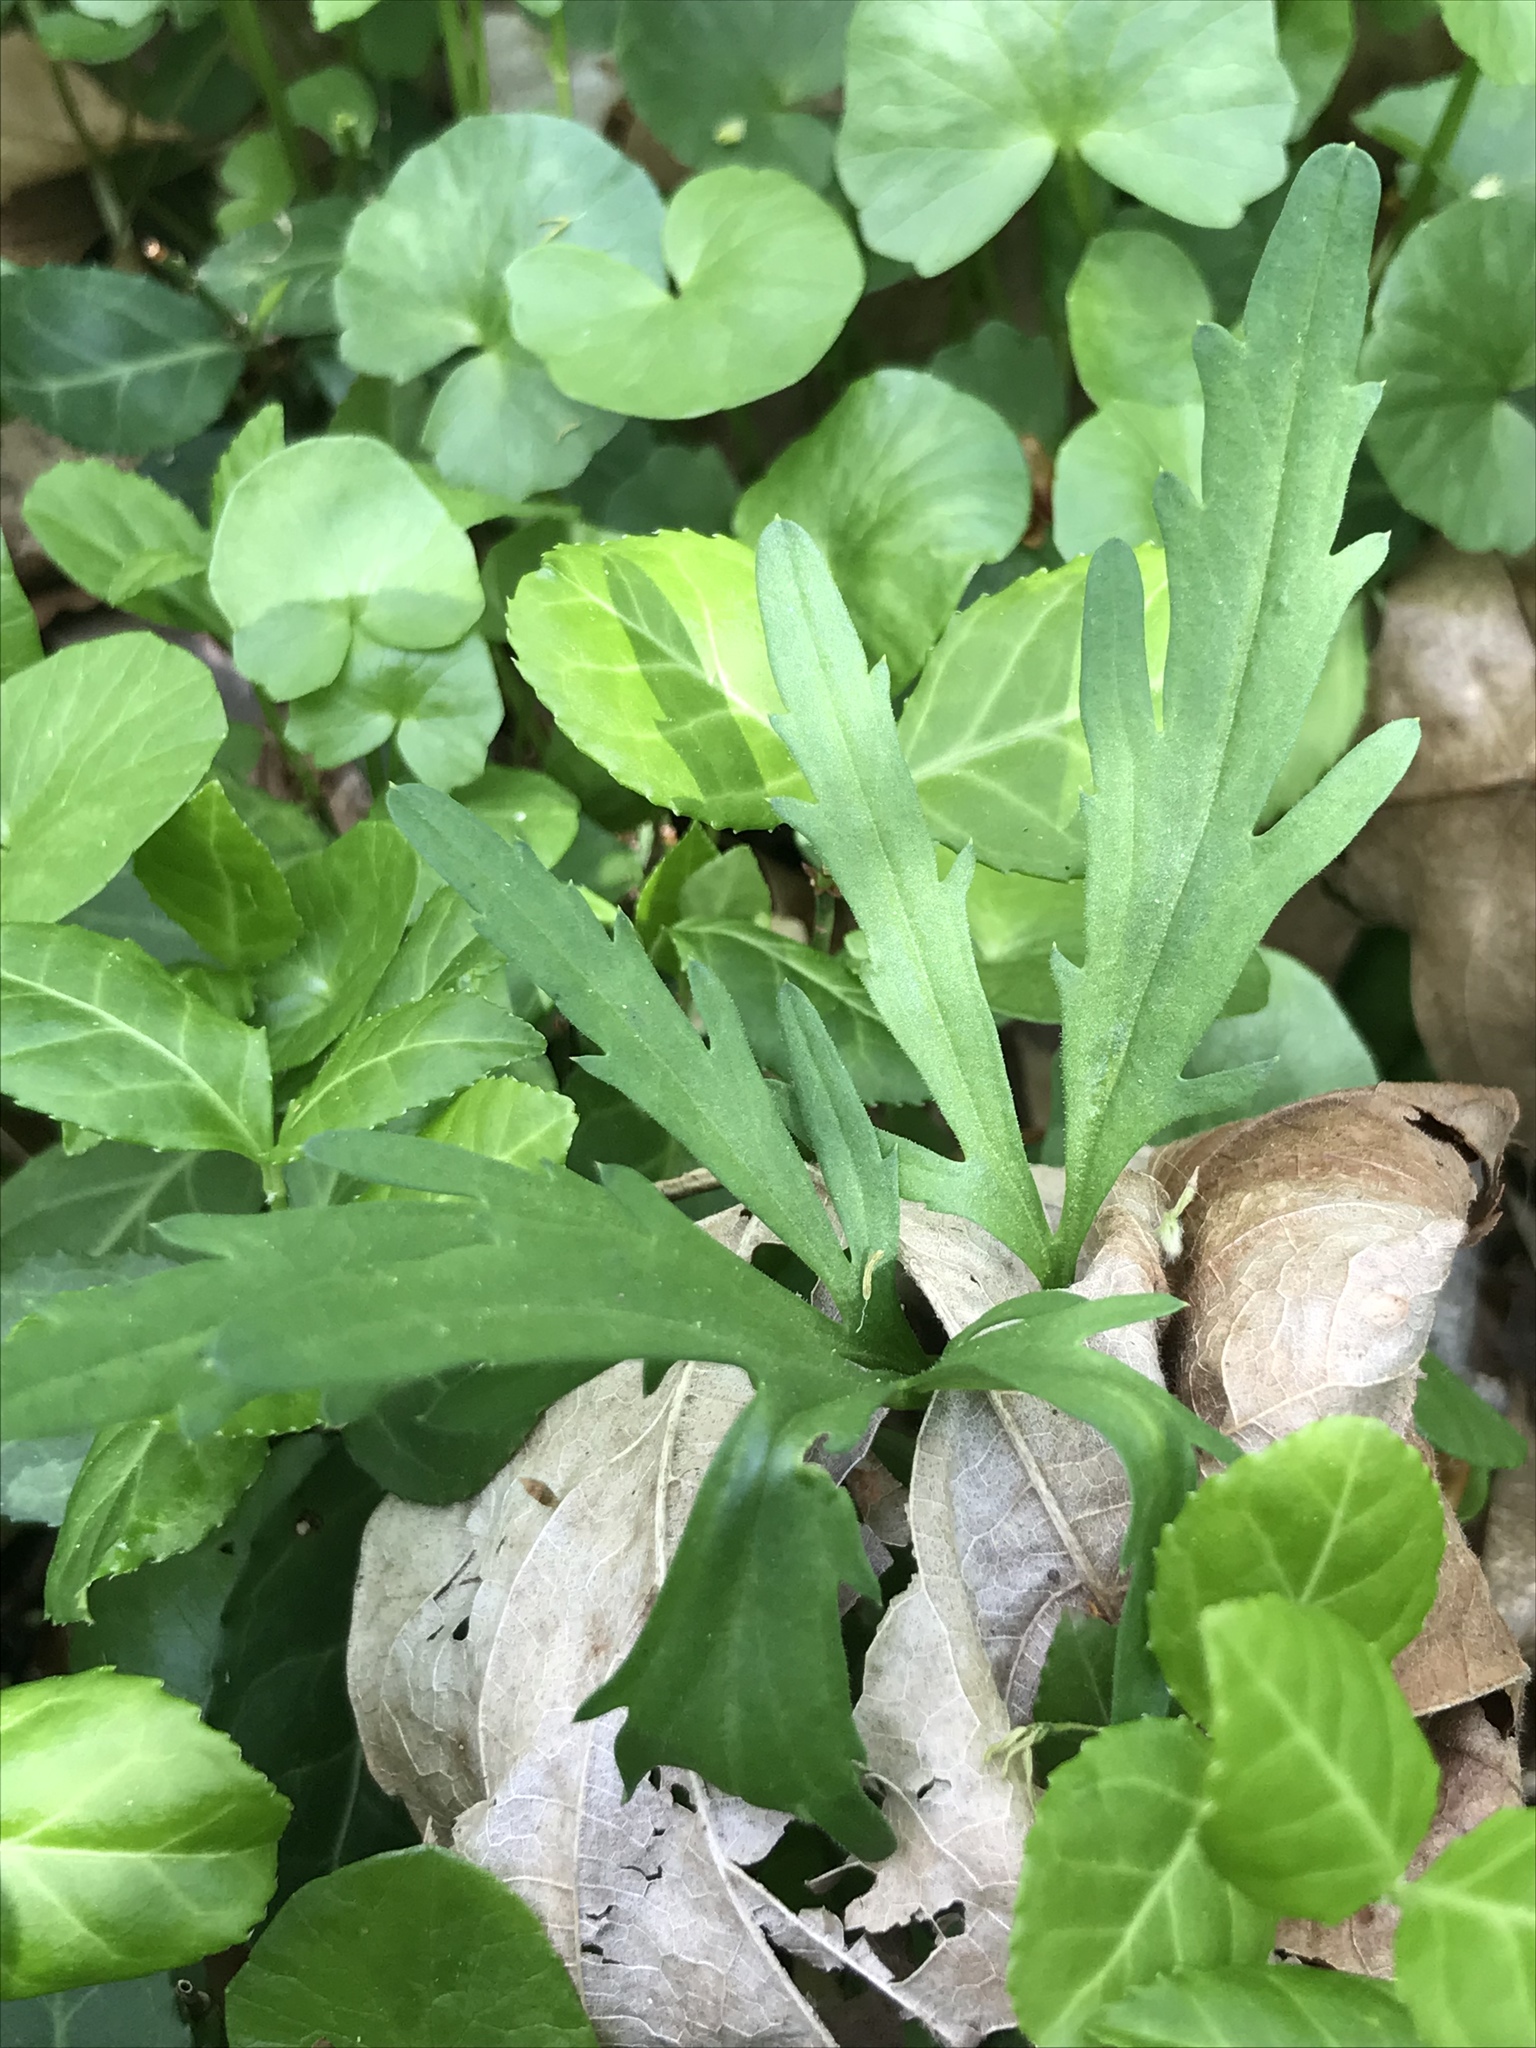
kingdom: Plantae
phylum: Tracheophyta
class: Magnoliopsida
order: Brassicales
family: Brassicaceae
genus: Cardamine
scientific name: Cardamine concatenata
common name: Cut-leaf toothcup
